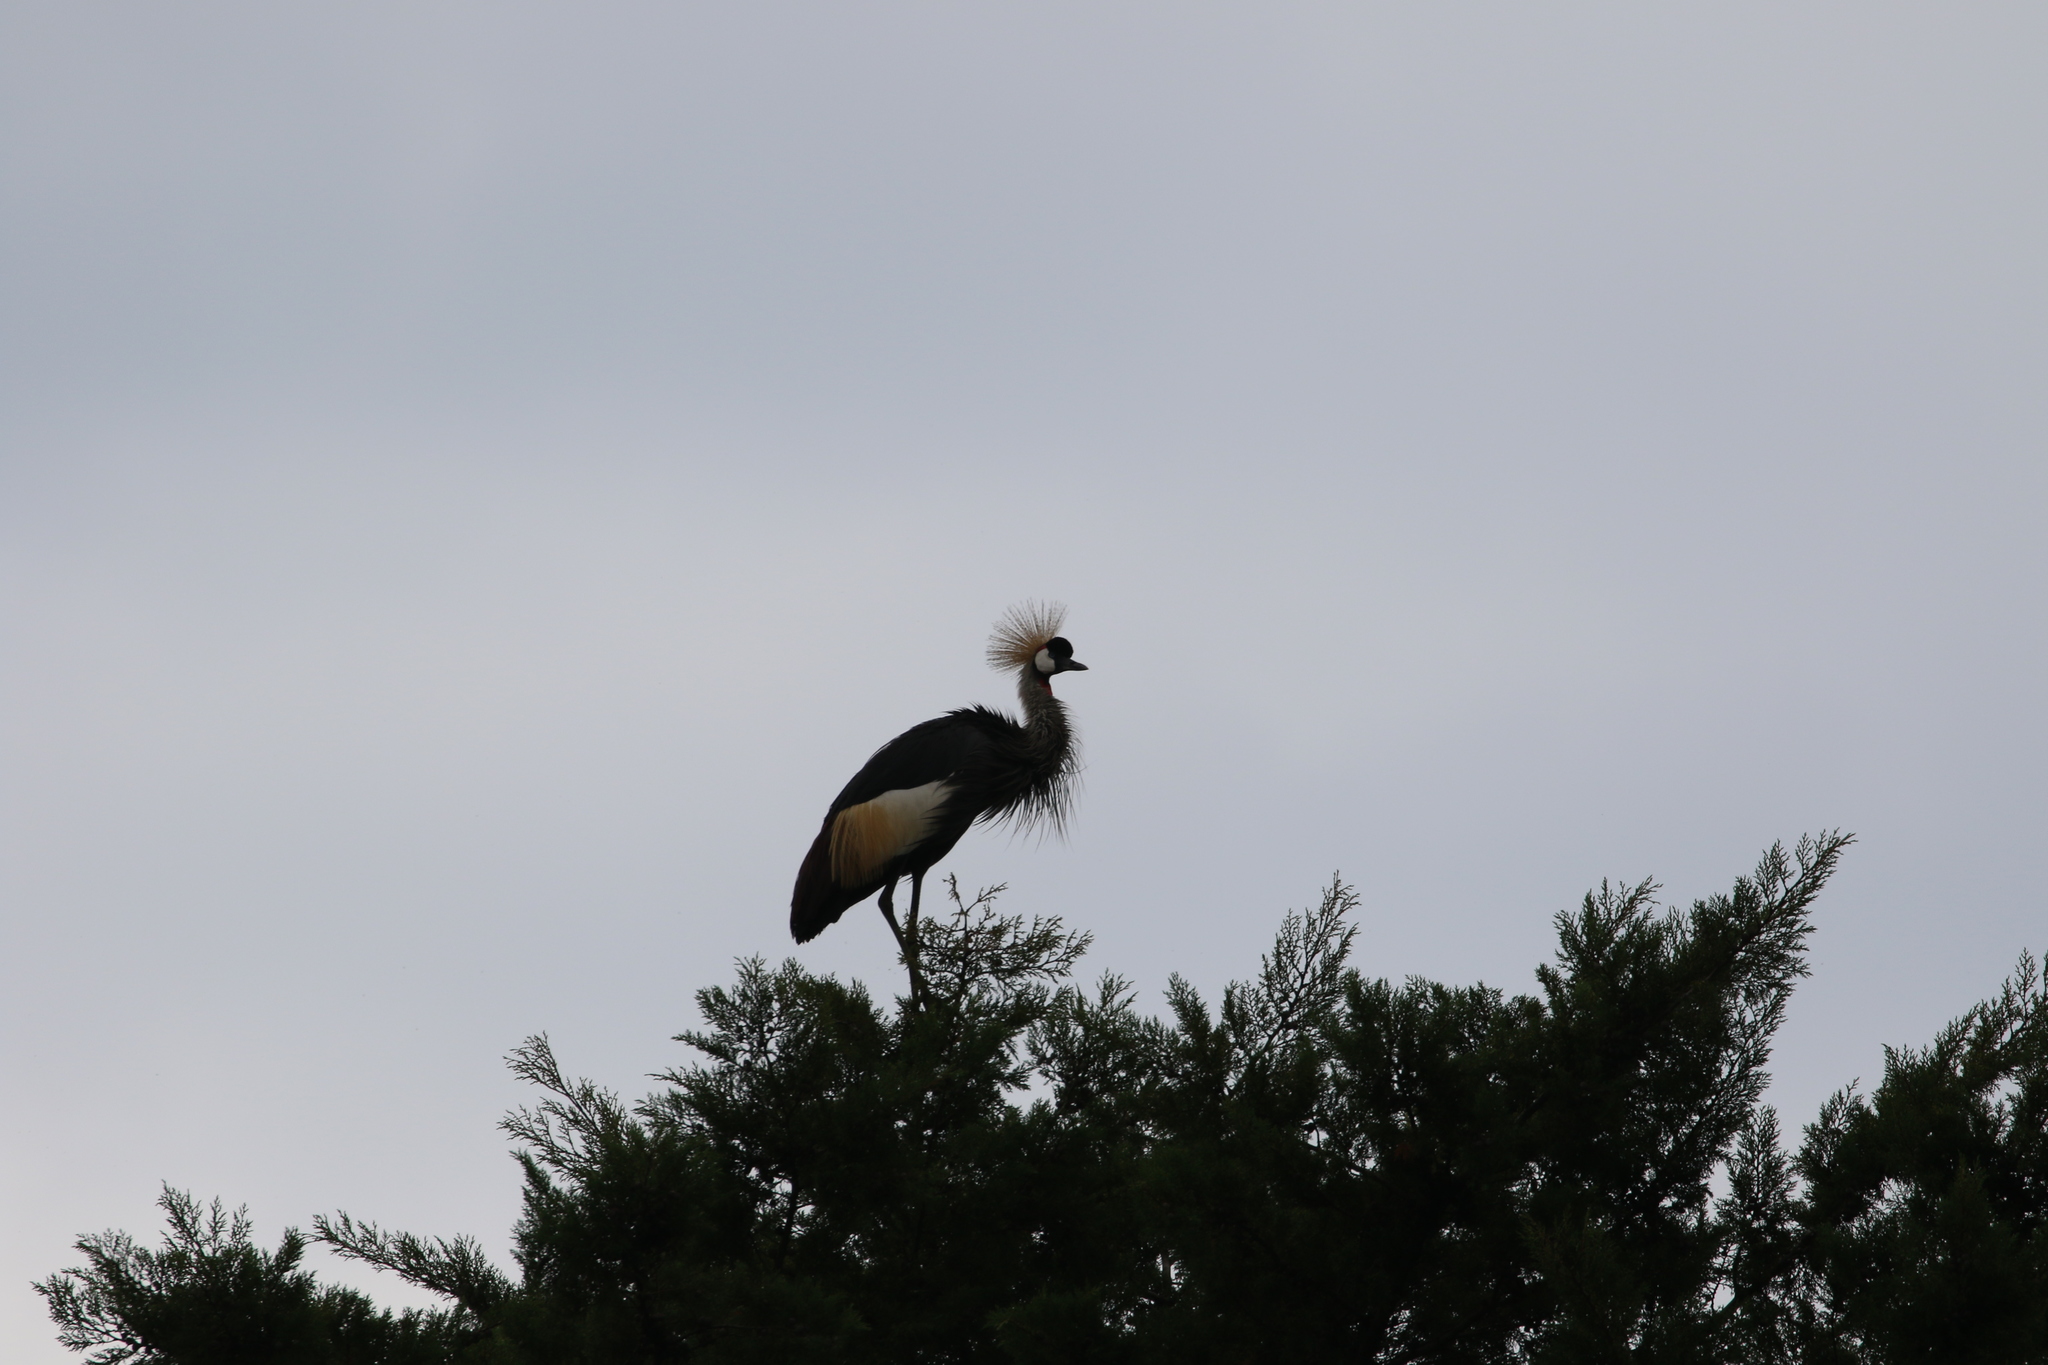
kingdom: Animalia
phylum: Chordata
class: Aves
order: Gruiformes
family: Gruidae
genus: Balearica
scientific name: Balearica regulorum
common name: Grey crowned crane
